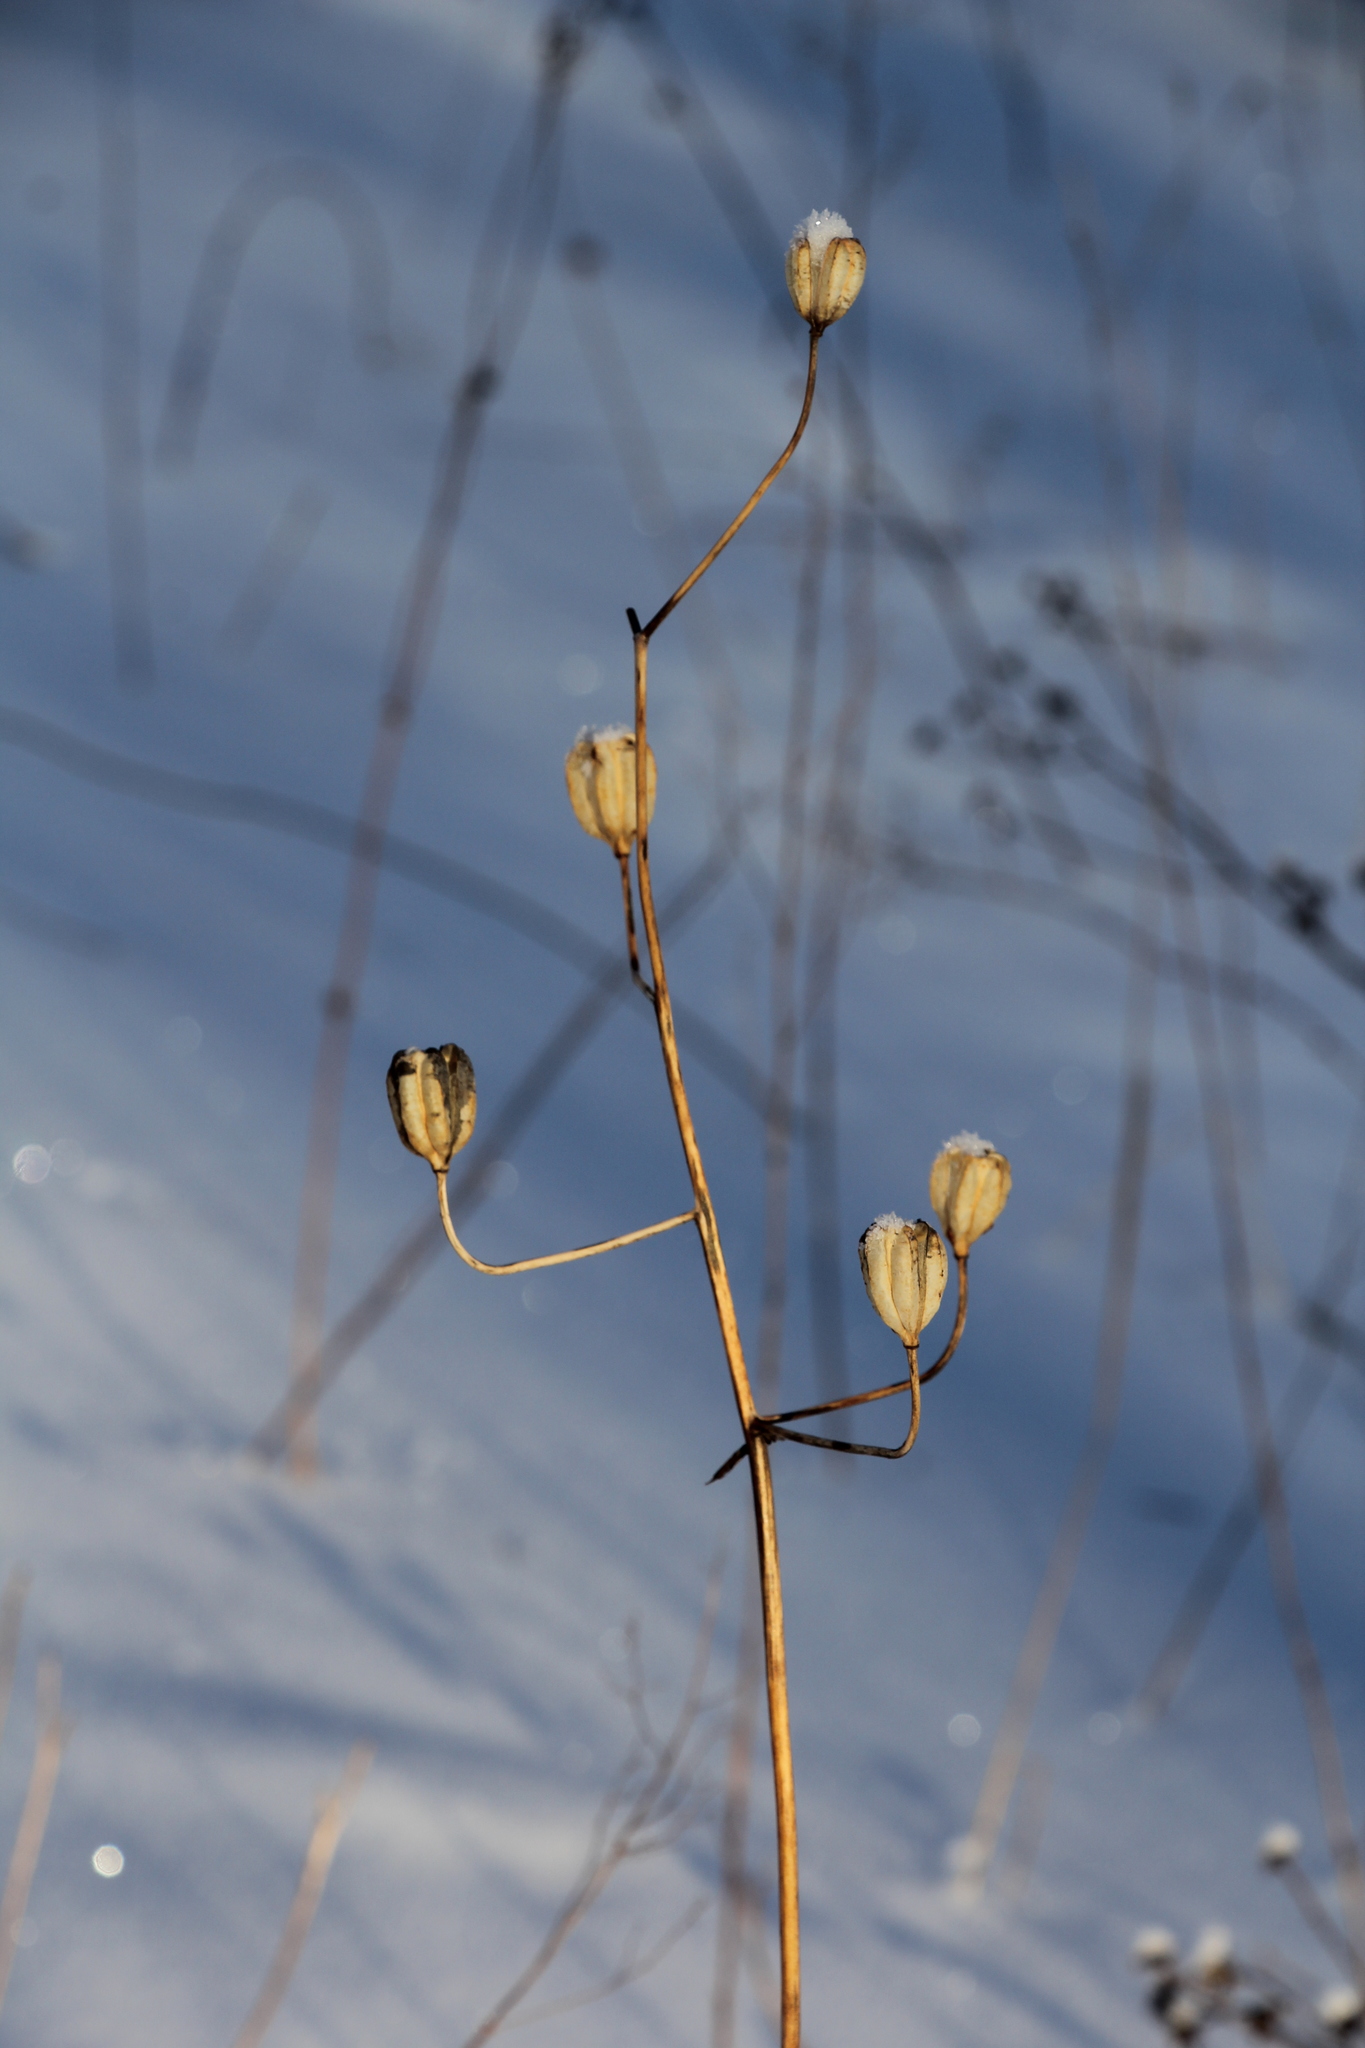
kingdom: Plantae
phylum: Tracheophyta
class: Liliopsida
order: Liliales
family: Liliaceae
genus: Lilium
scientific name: Lilium martagon
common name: Martagon lily
